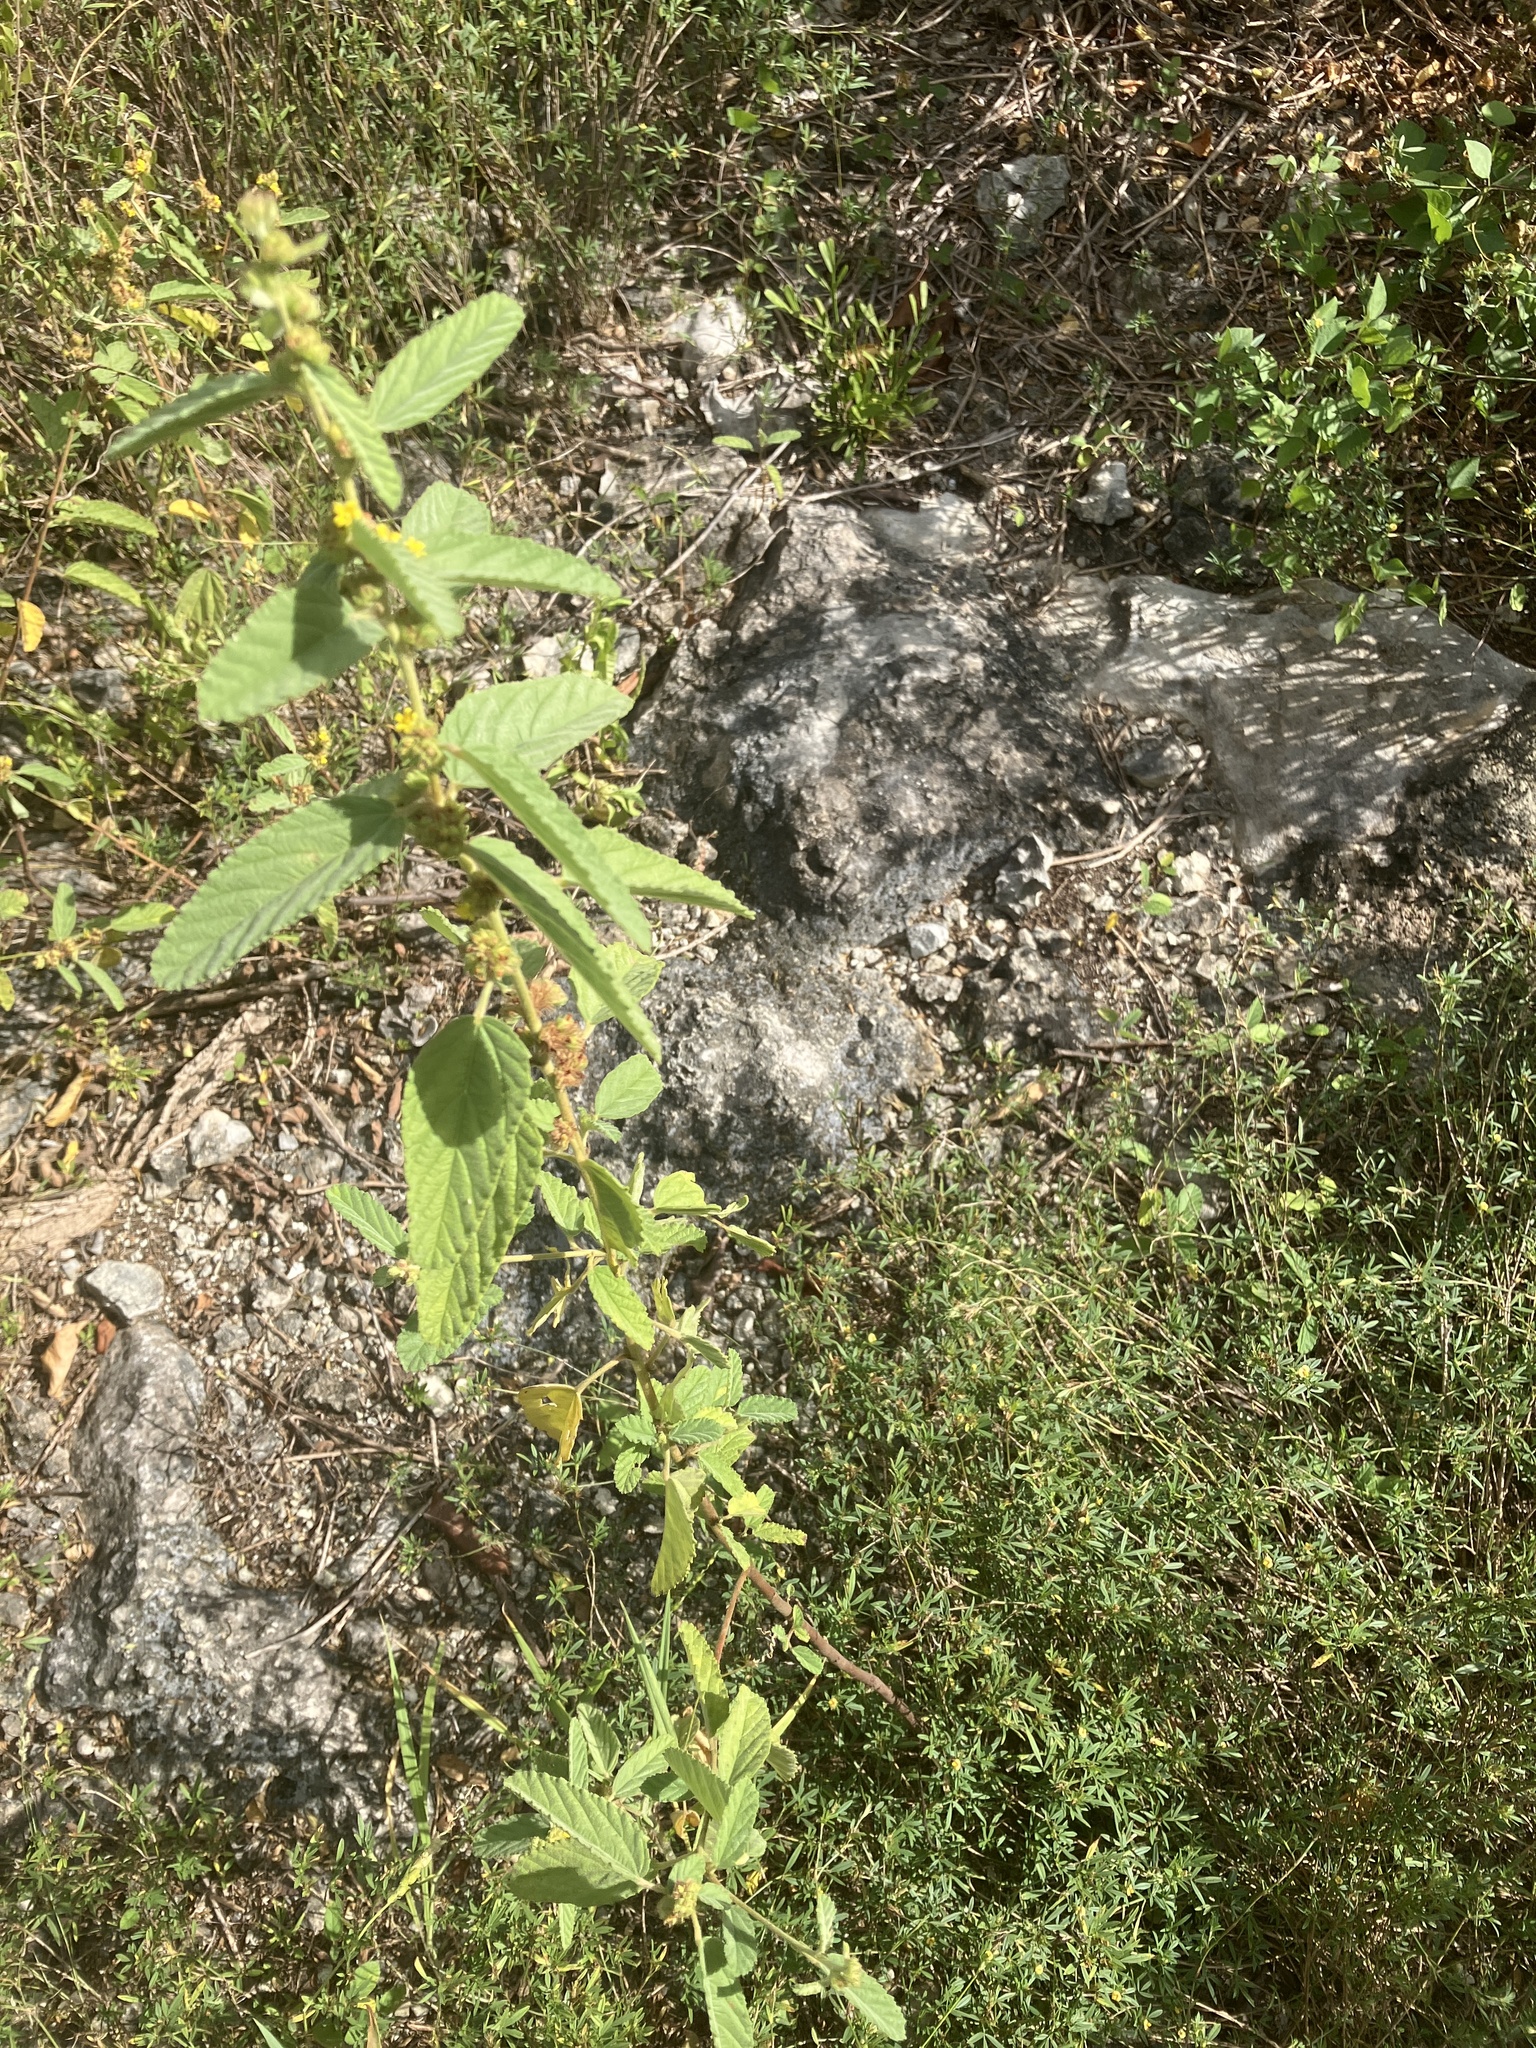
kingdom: Plantae
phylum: Tracheophyta
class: Magnoliopsida
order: Malvales
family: Malvaceae
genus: Waltheria
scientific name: Waltheria indica
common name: Leather-coat
